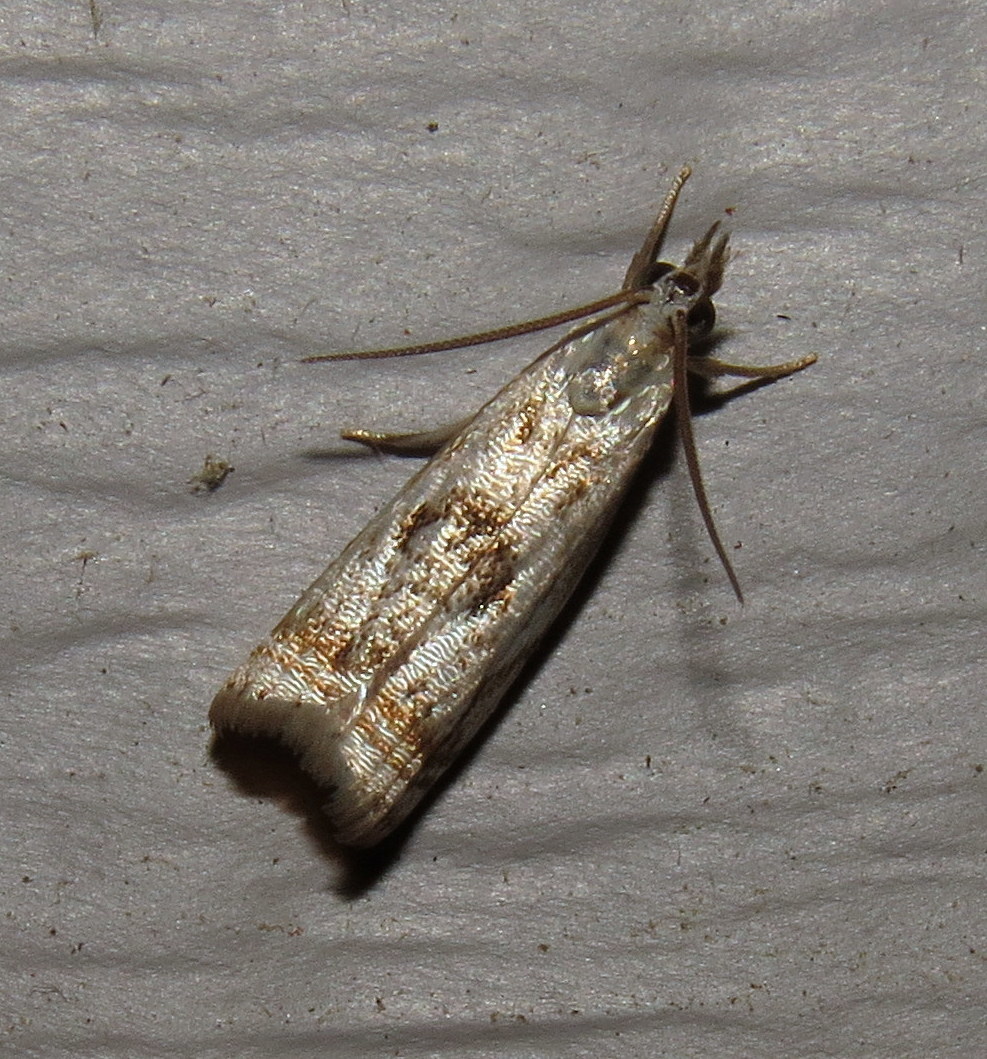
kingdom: Animalia
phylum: Arthropoda
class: Insecta
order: Lepidoptera
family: Crambidae
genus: Microcrambus
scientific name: Microcrambus elegans
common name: Elegant grass-veneer
